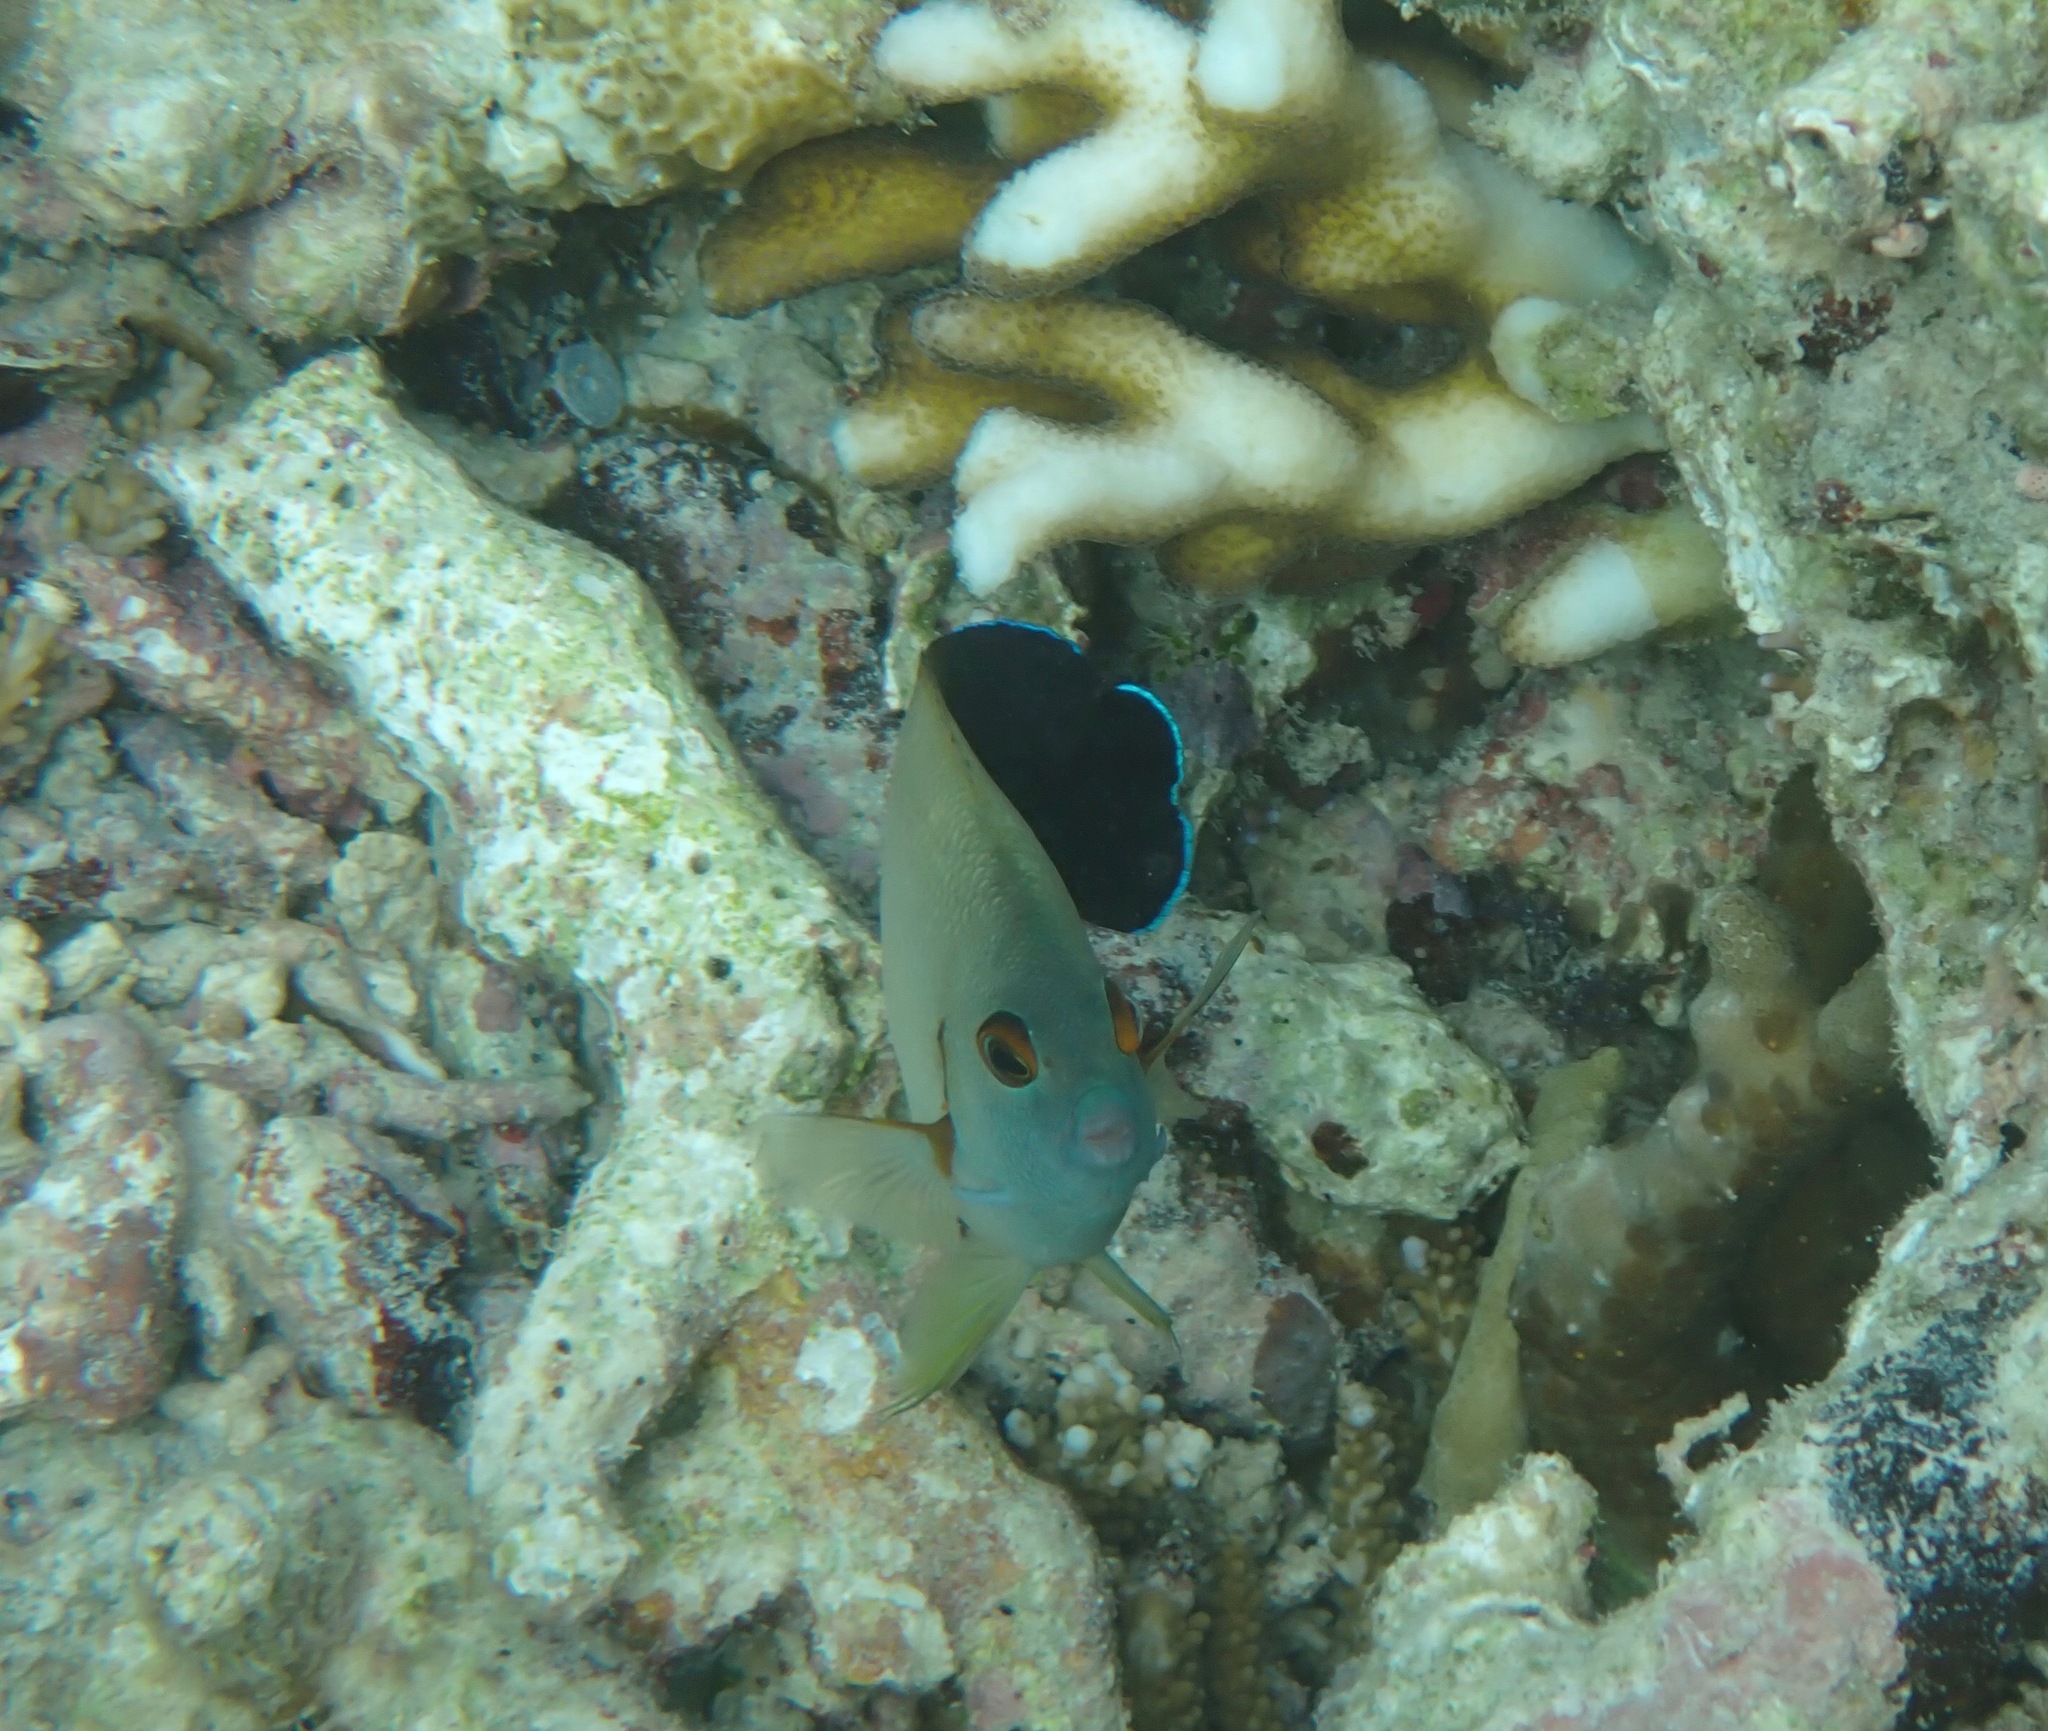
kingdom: Animalia
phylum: Chordata
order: Perciformes
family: Pomacanthidae
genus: Centropyge
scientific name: Centropyge vrolikii
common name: Pearlscale angelfish
